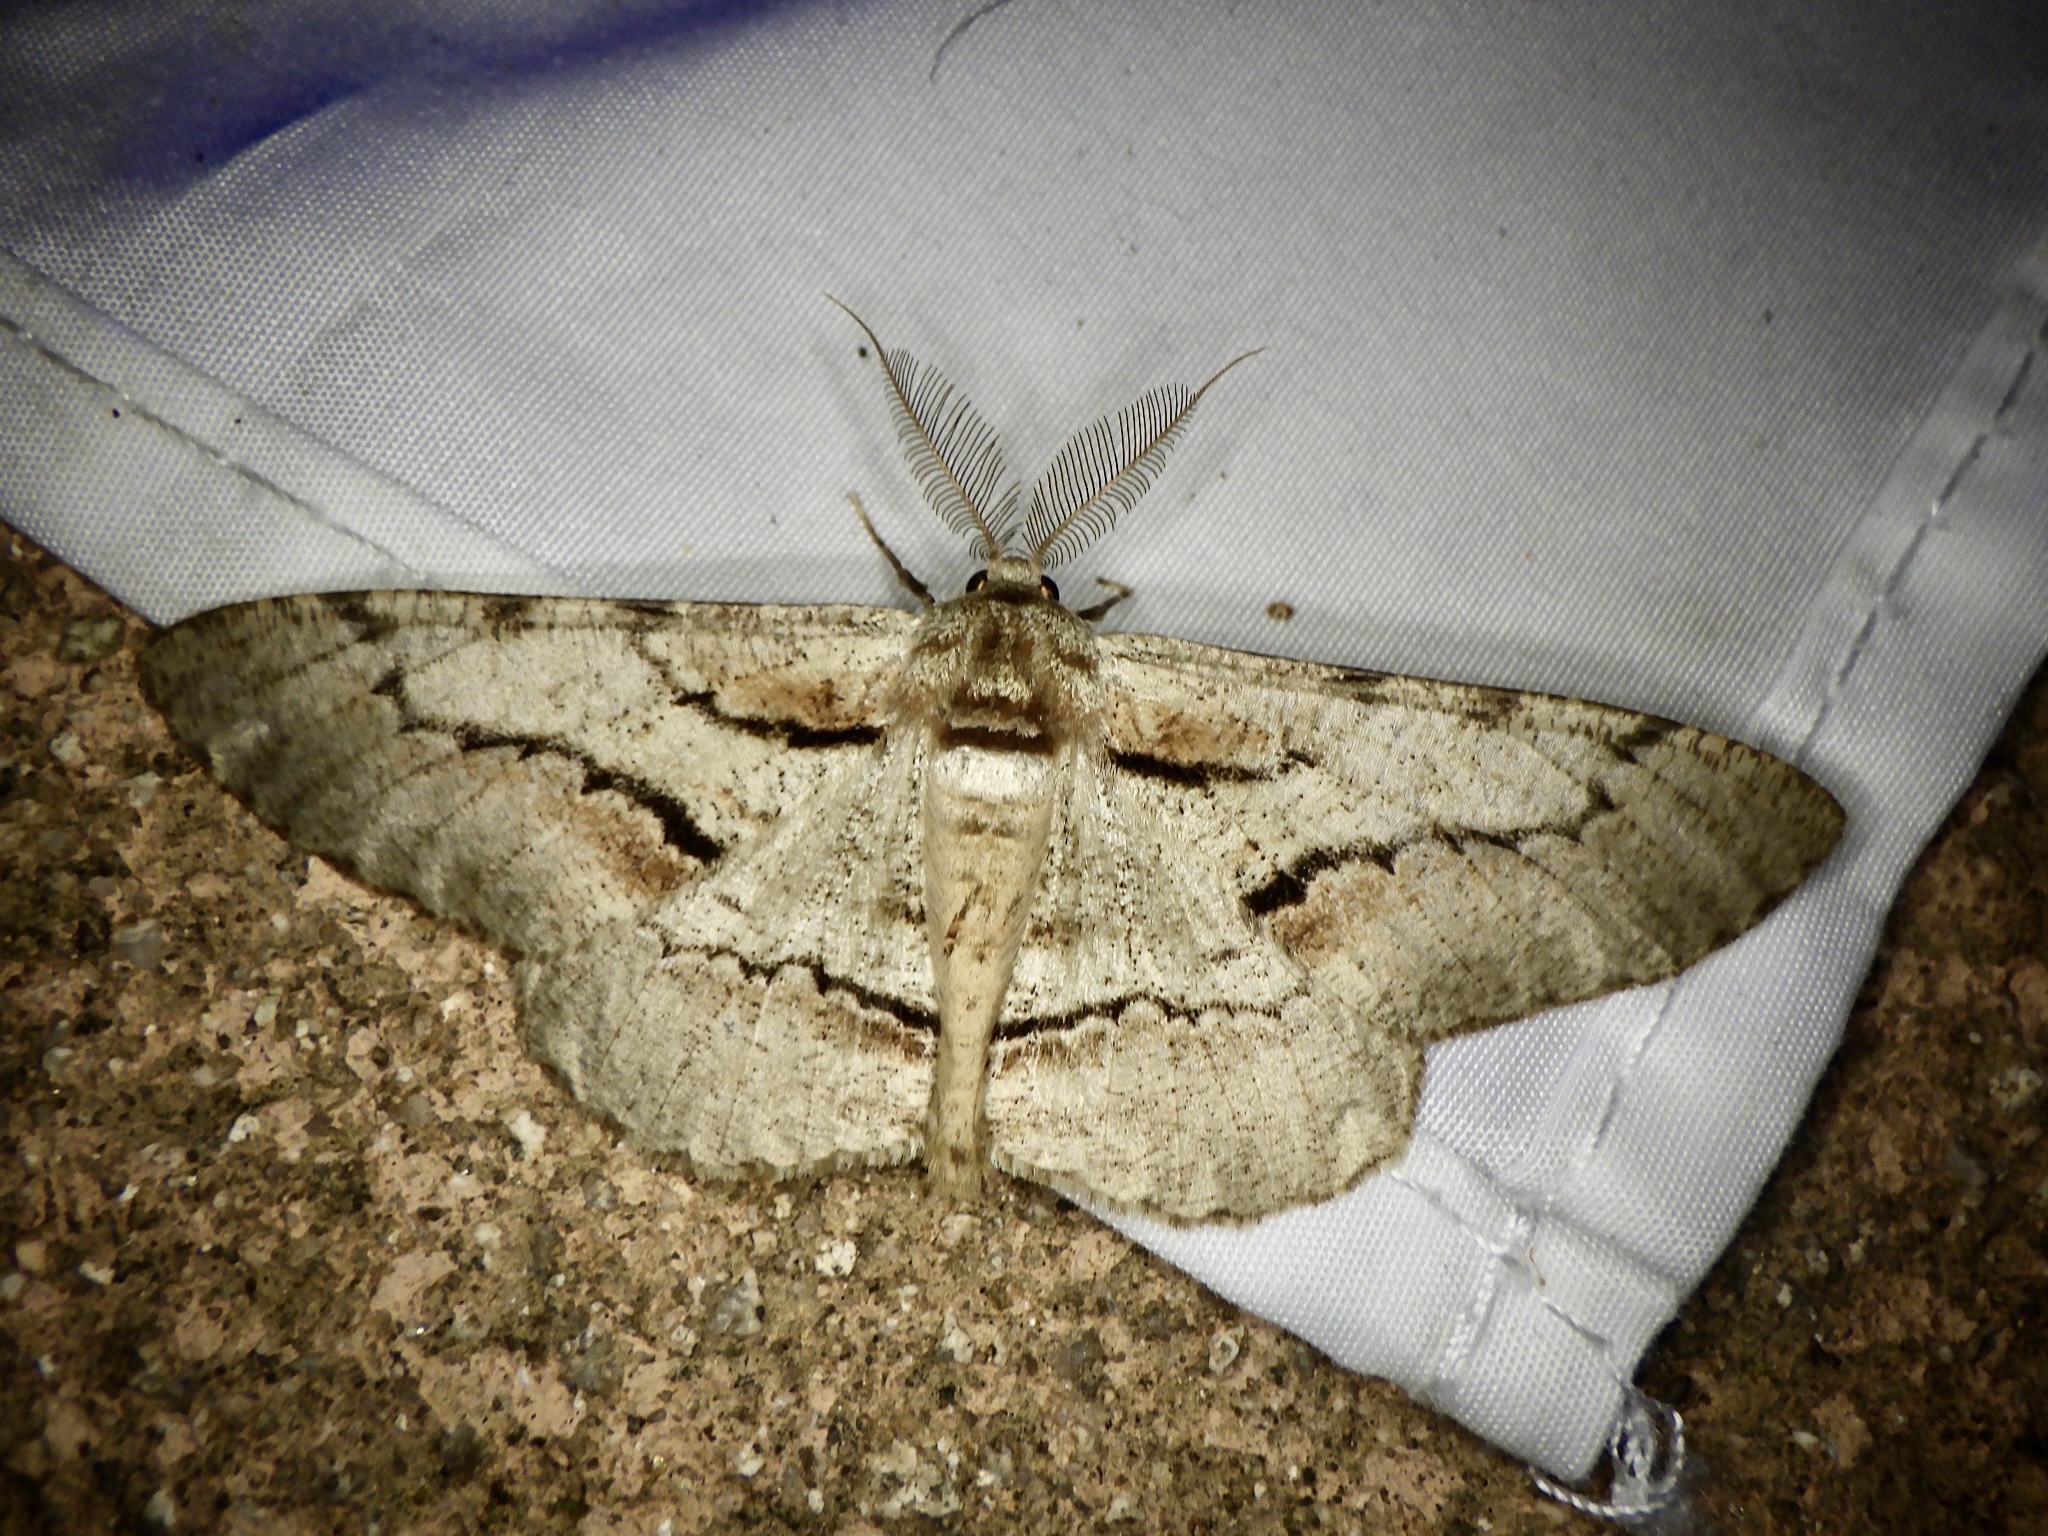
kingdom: Animalia
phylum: Arthropoda
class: Insecta
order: Lepidoptera
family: Geometridae
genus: Phthonosema
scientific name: Phthonosema tendinosaria
